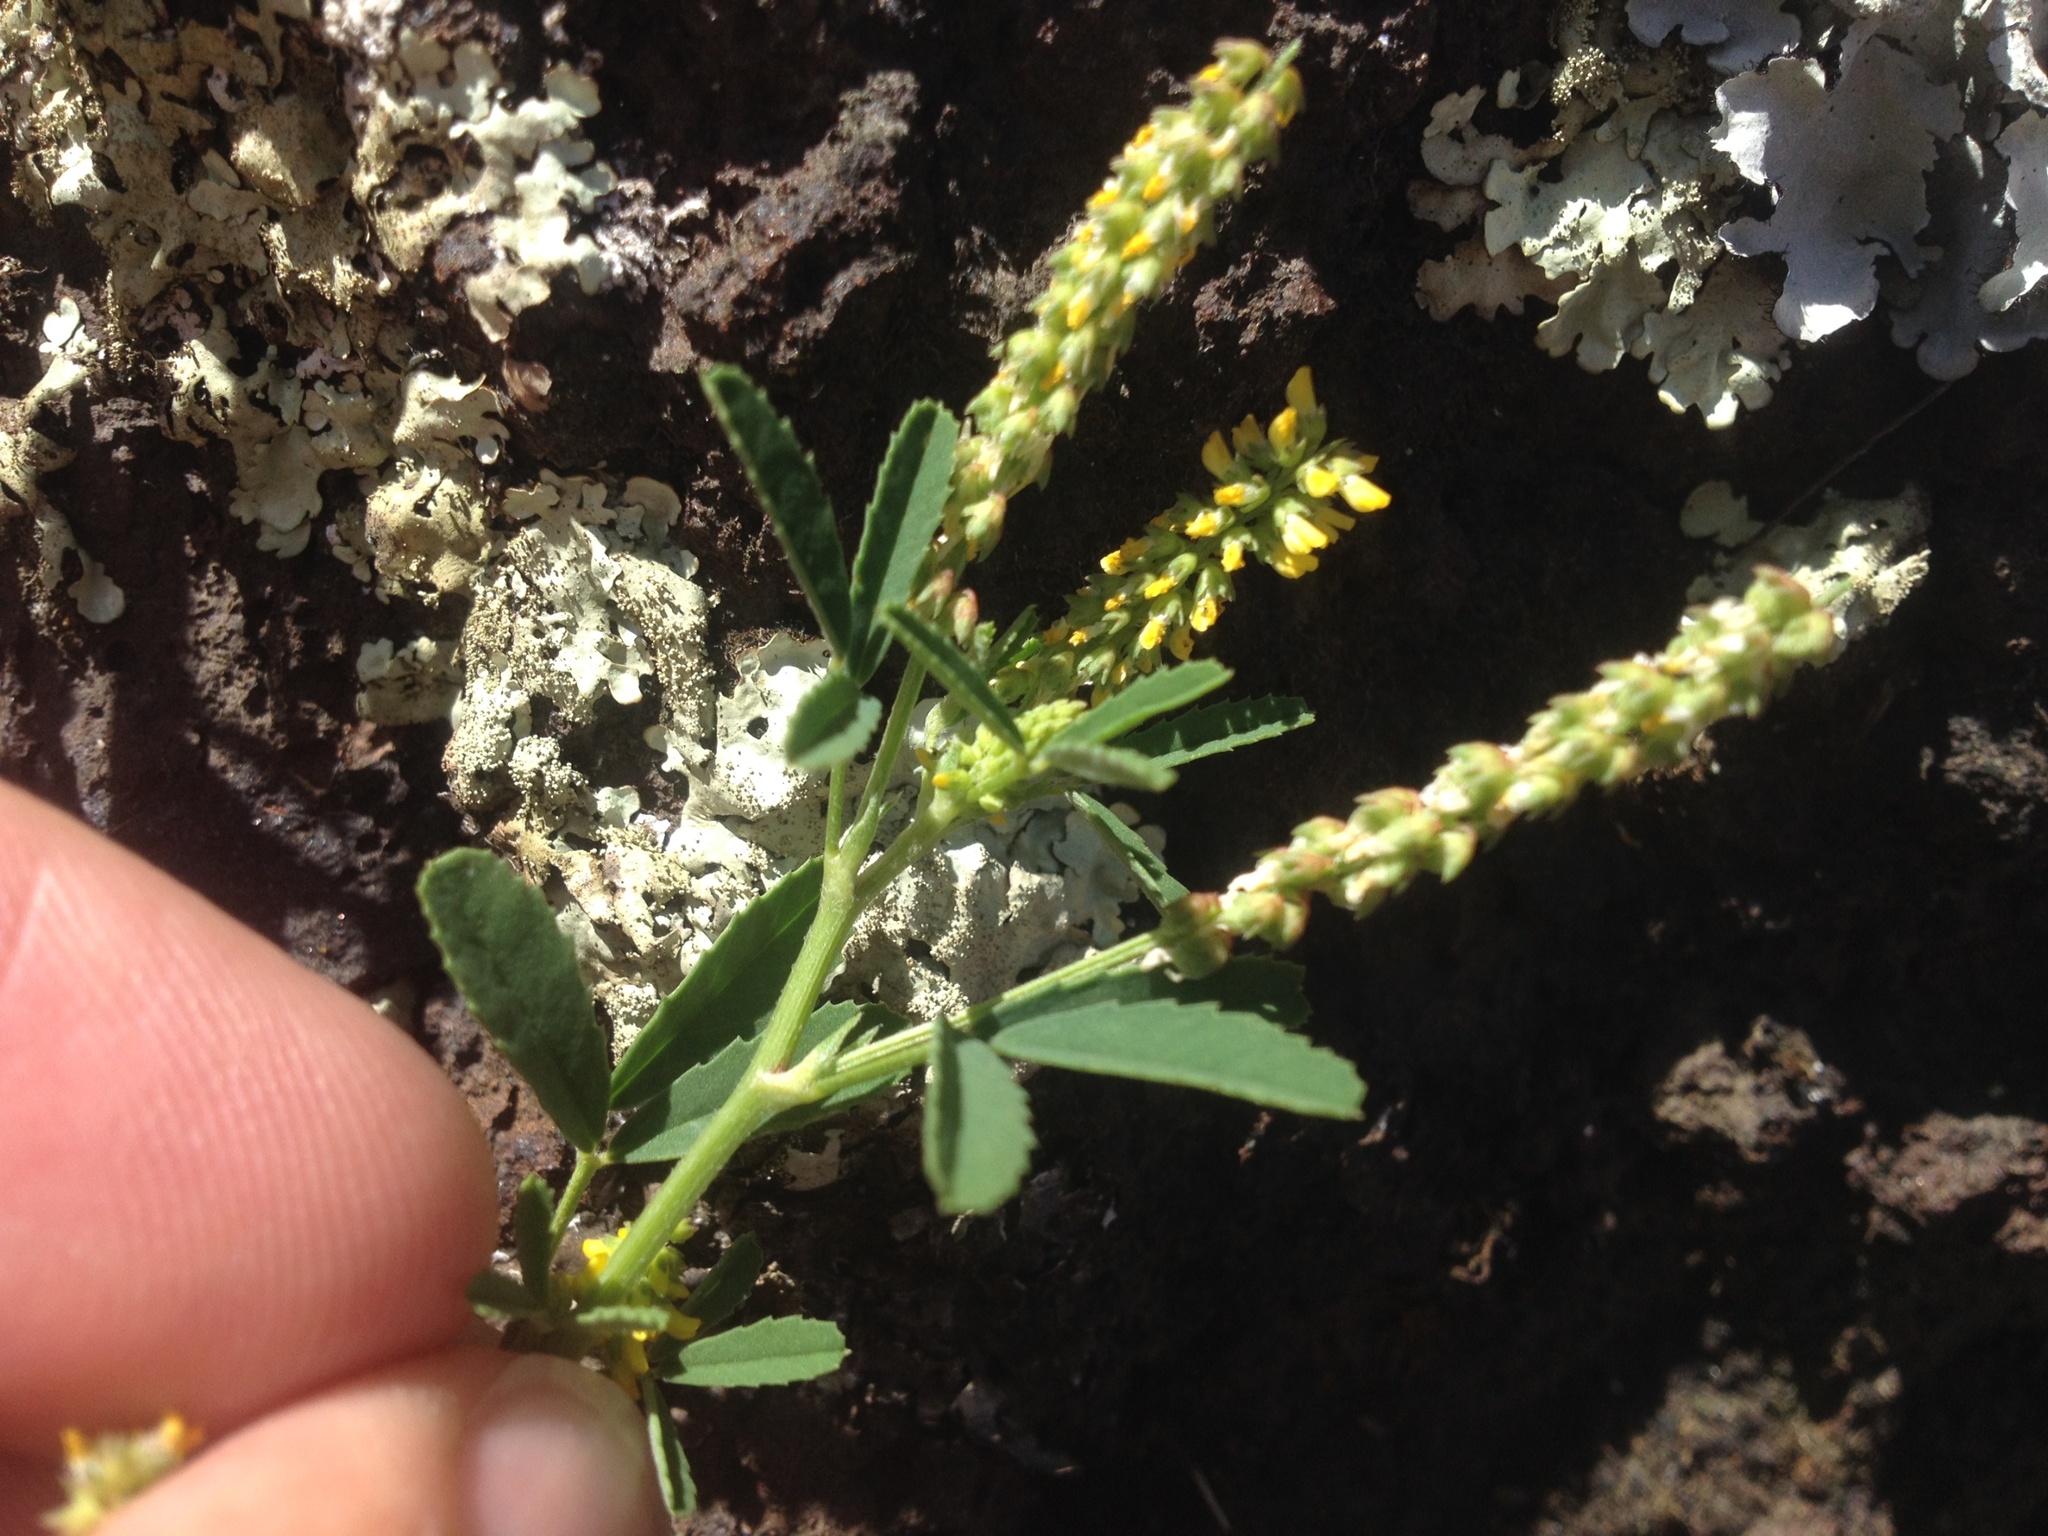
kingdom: Plantae
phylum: Tracheophyta
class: Magnoliopsida
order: Fabales
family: Fabaceae
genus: Melilotus
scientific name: Melilotus indicus
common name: Small melilot
